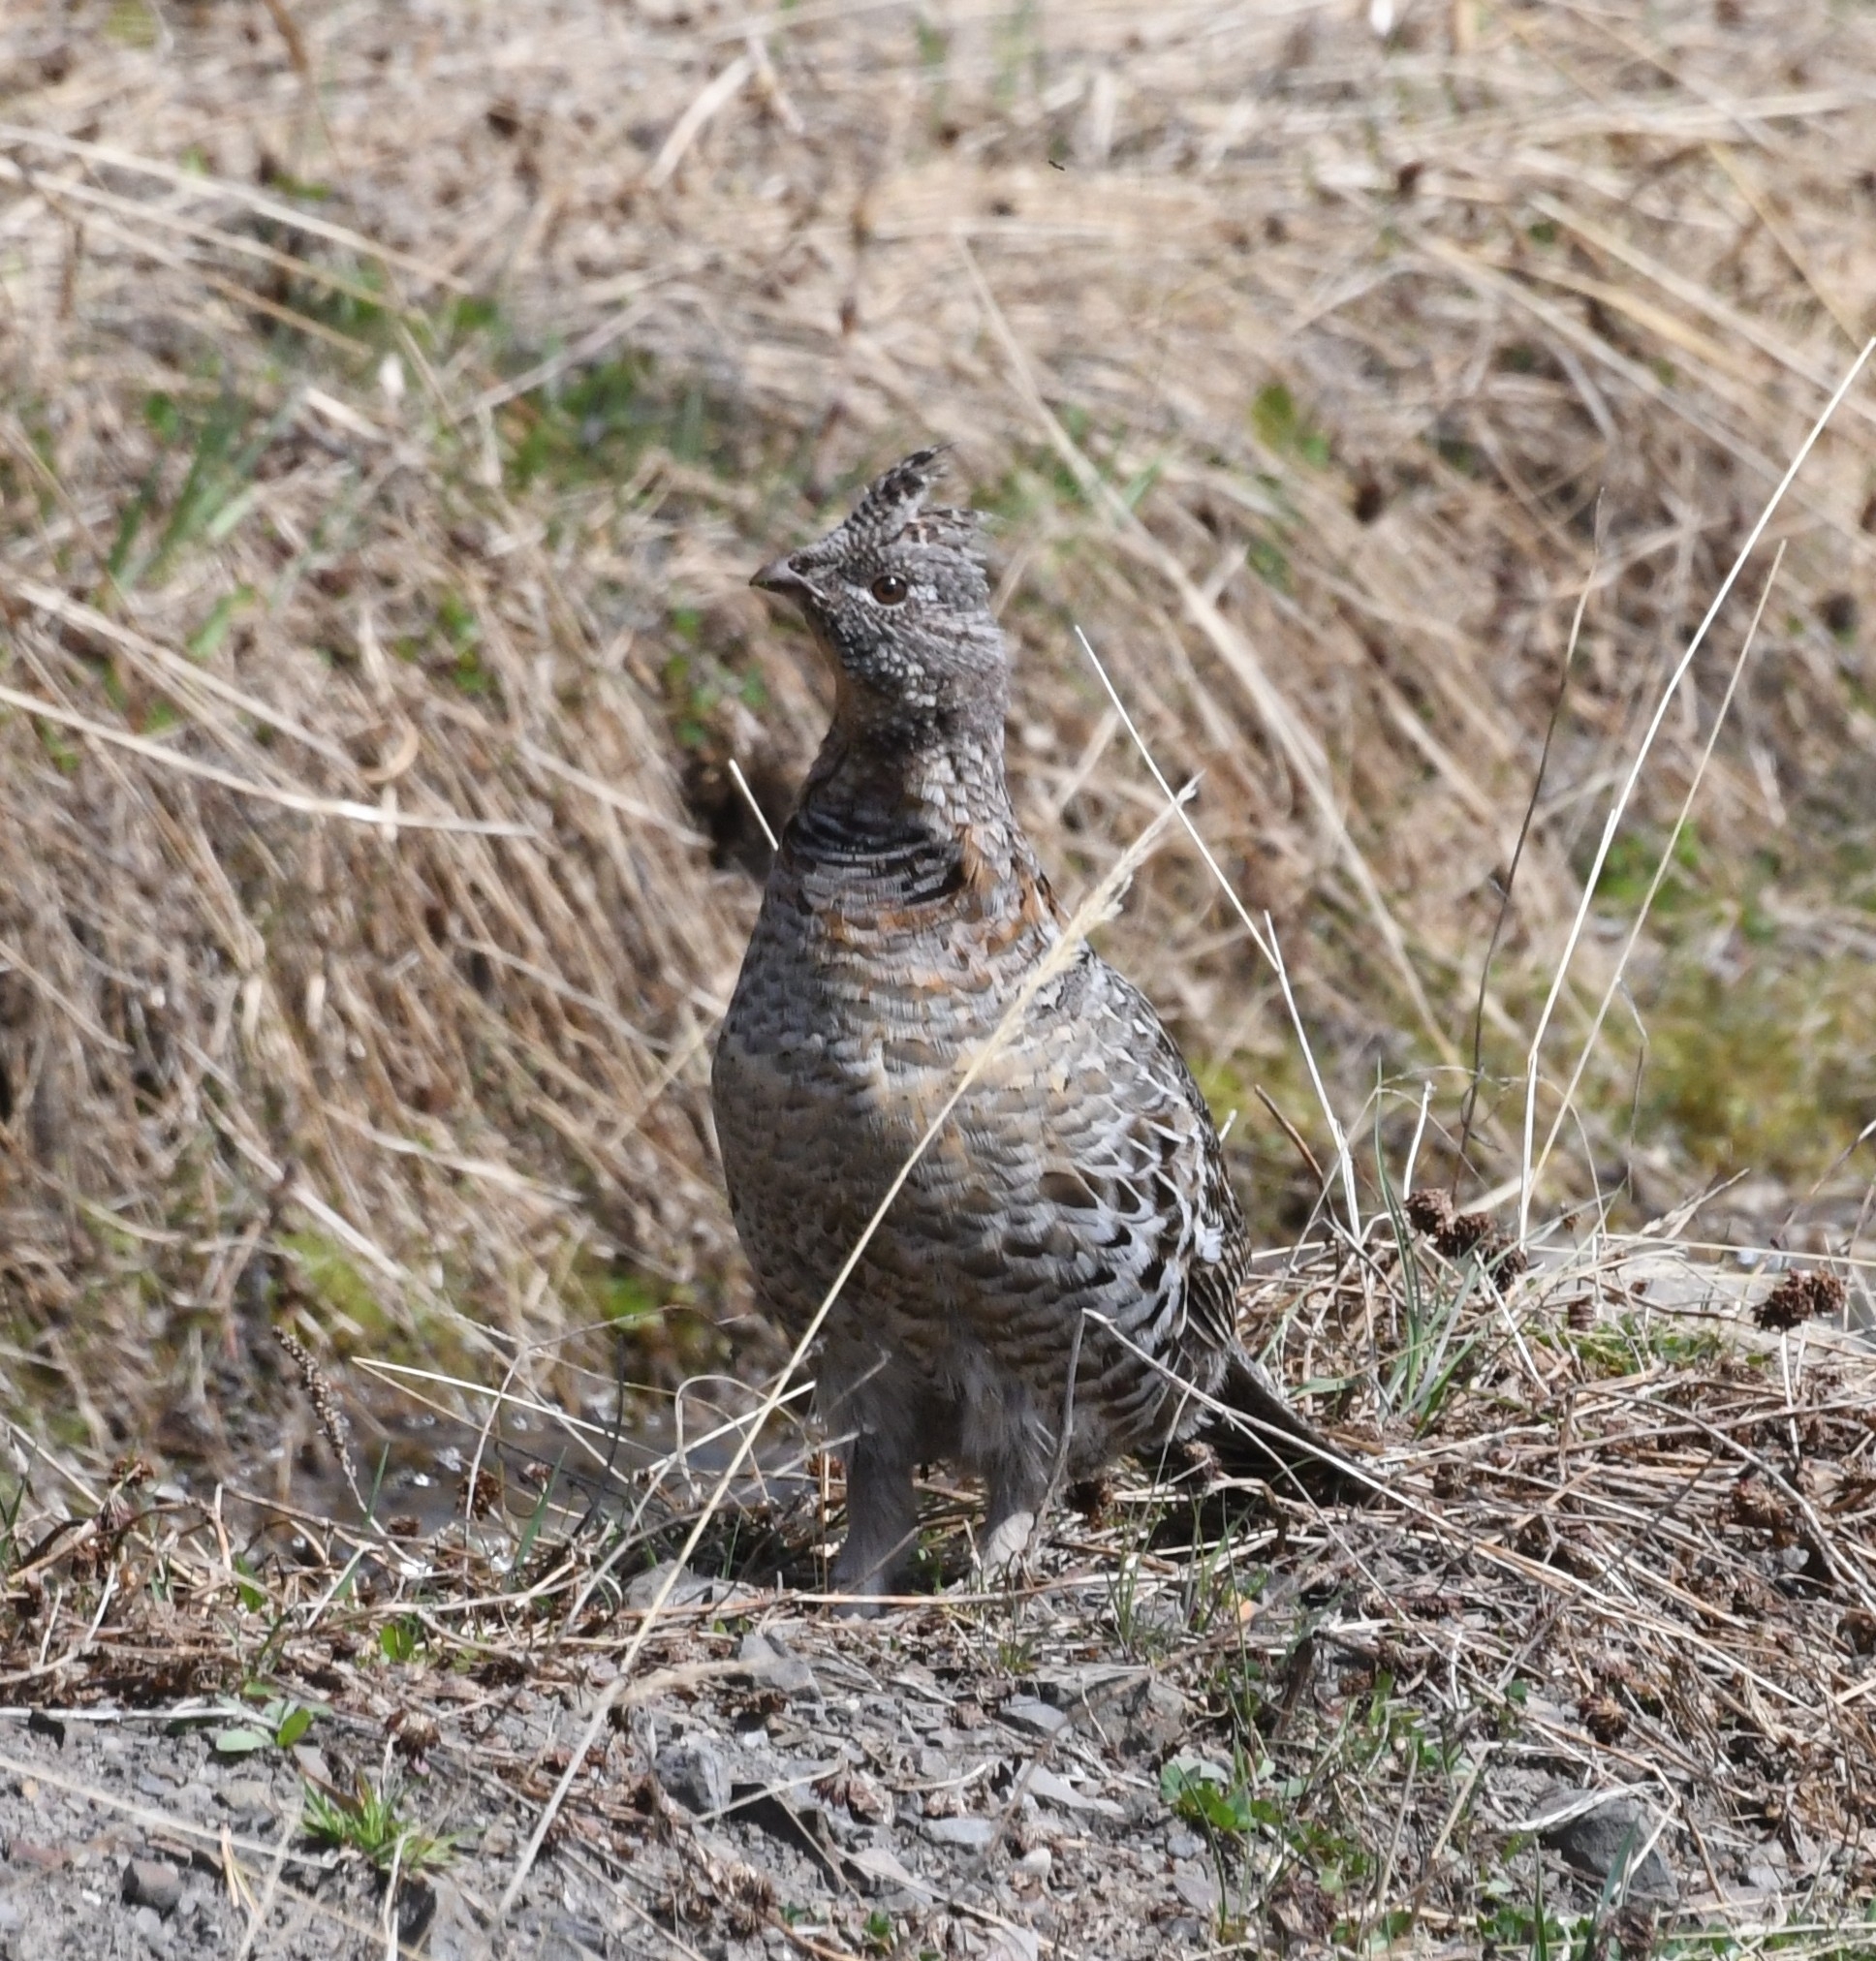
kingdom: Animalia
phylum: Chordata
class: Aves
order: Galliformes
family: Phasianidae
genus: Bonasa
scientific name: Bonasa umbellus
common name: Ruffed grouse
